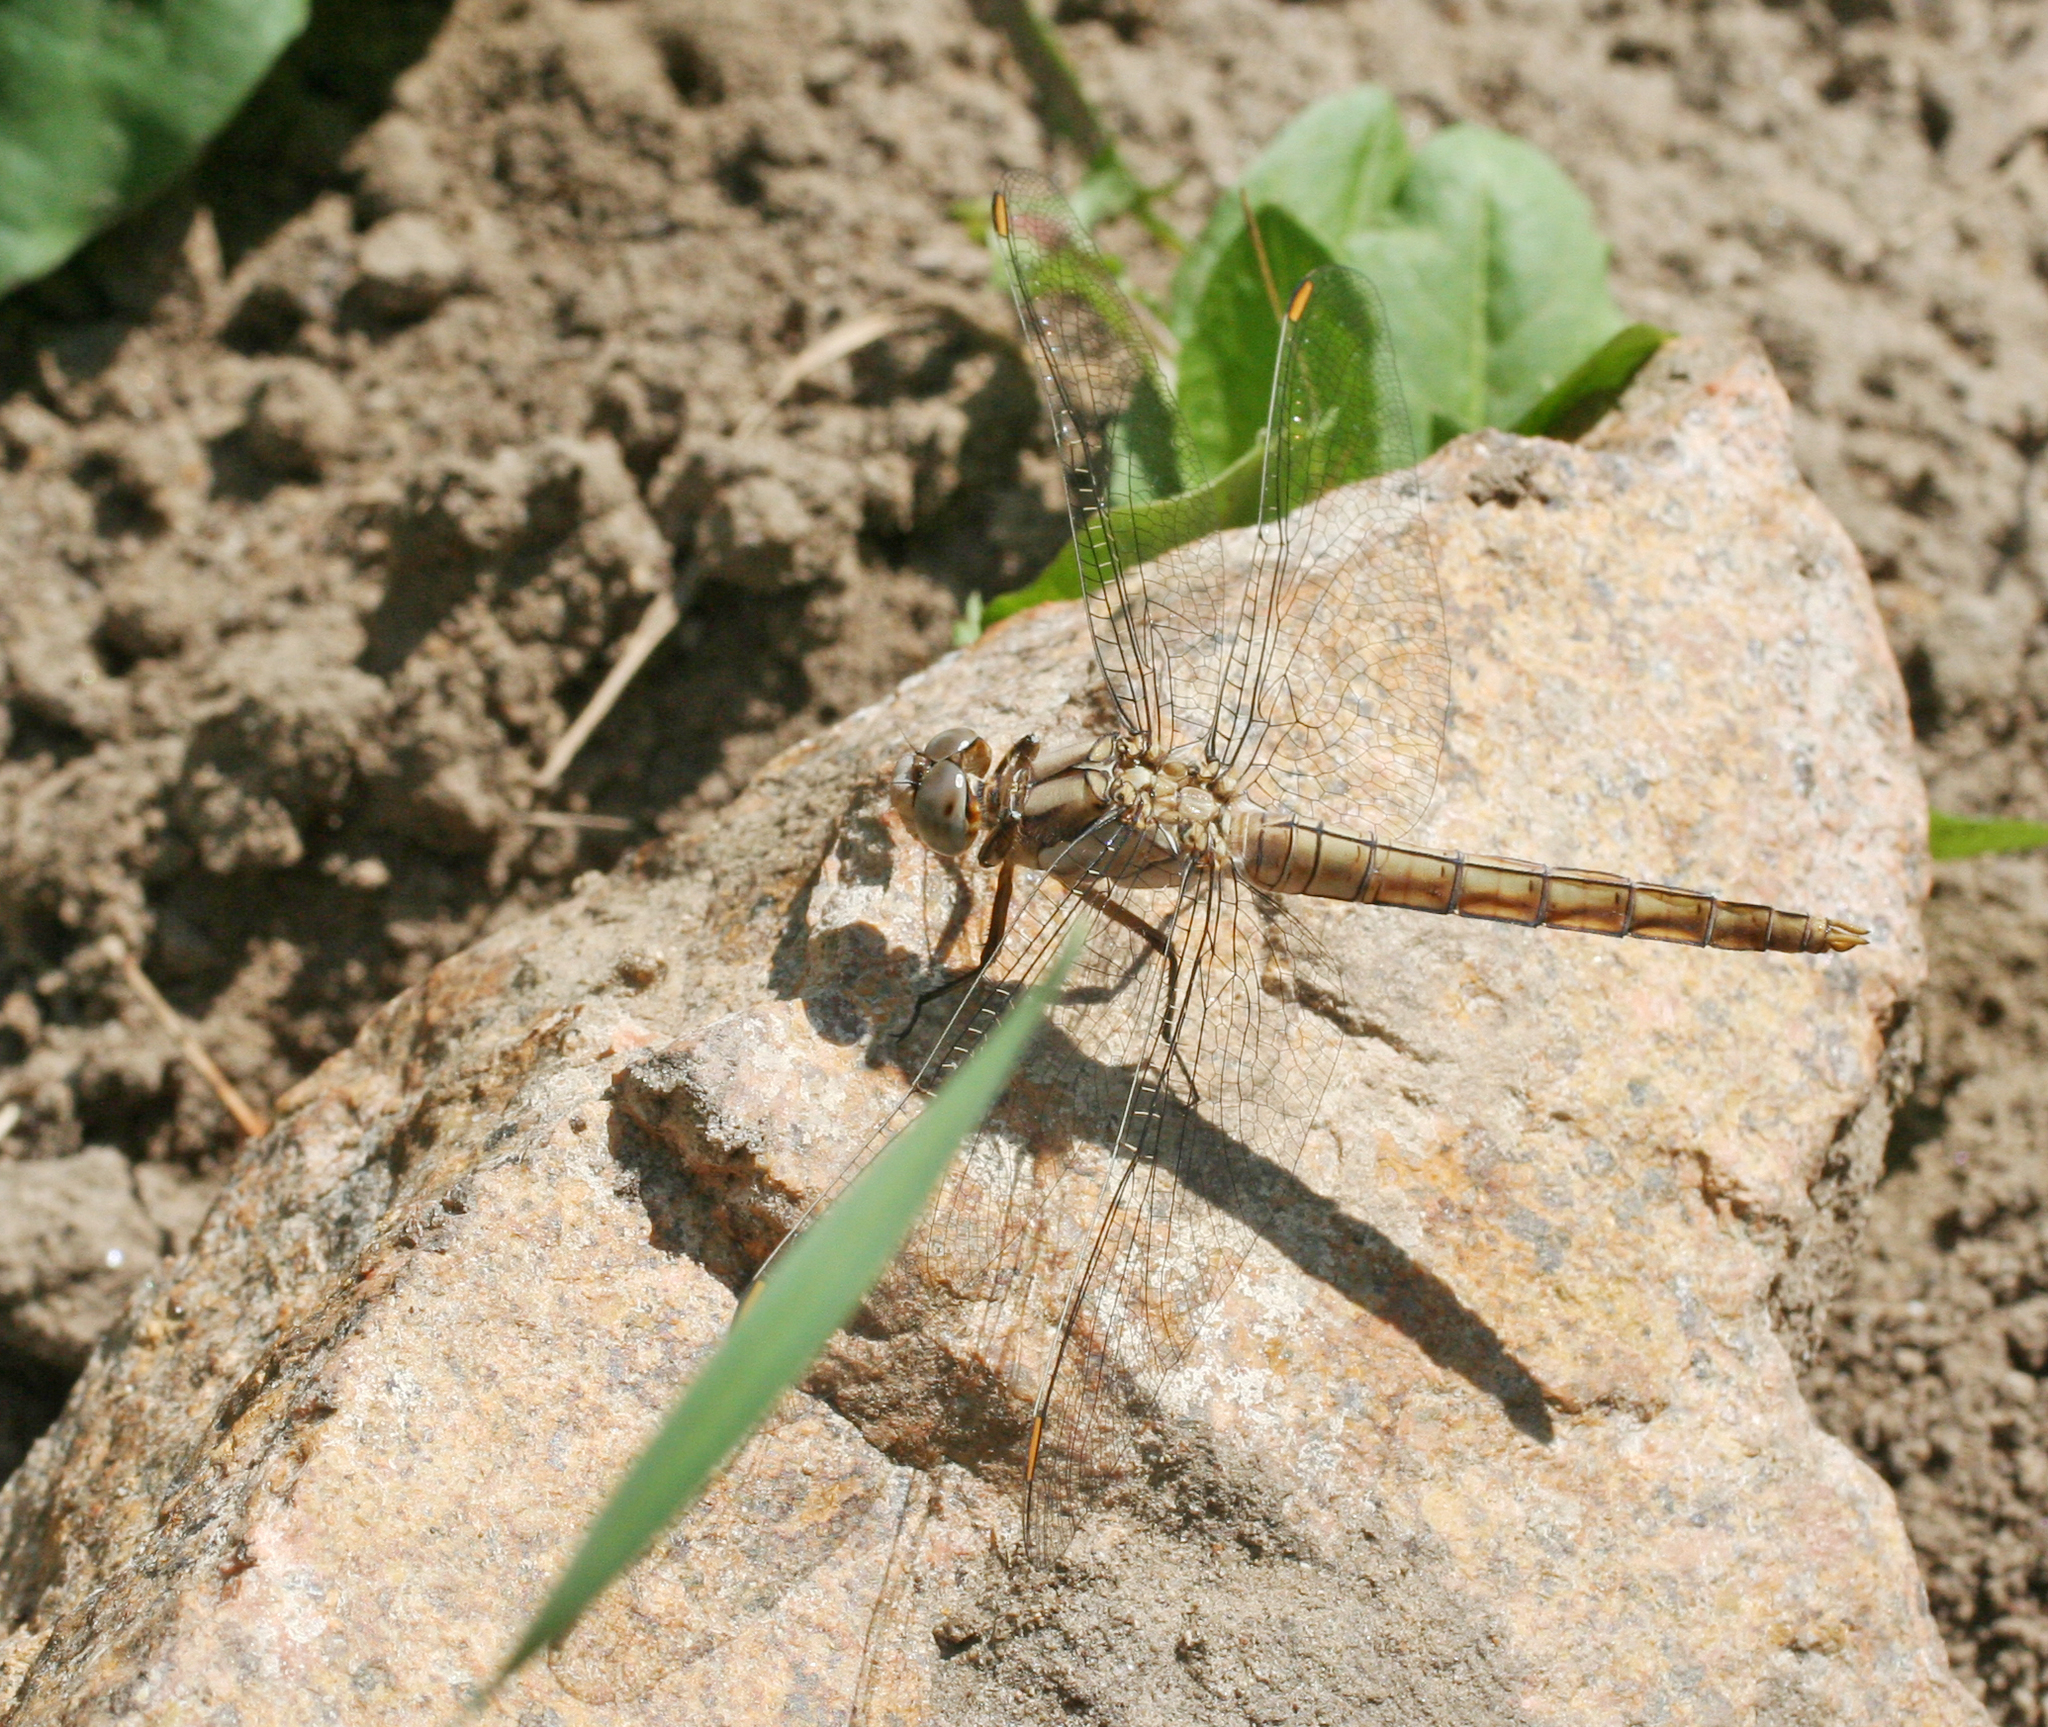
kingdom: Animalia
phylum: Arthropoda
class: Insecta
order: Odonata
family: Libellulidae
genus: Orthetrum
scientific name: Orthetrum brunneum
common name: Southern skimmer
